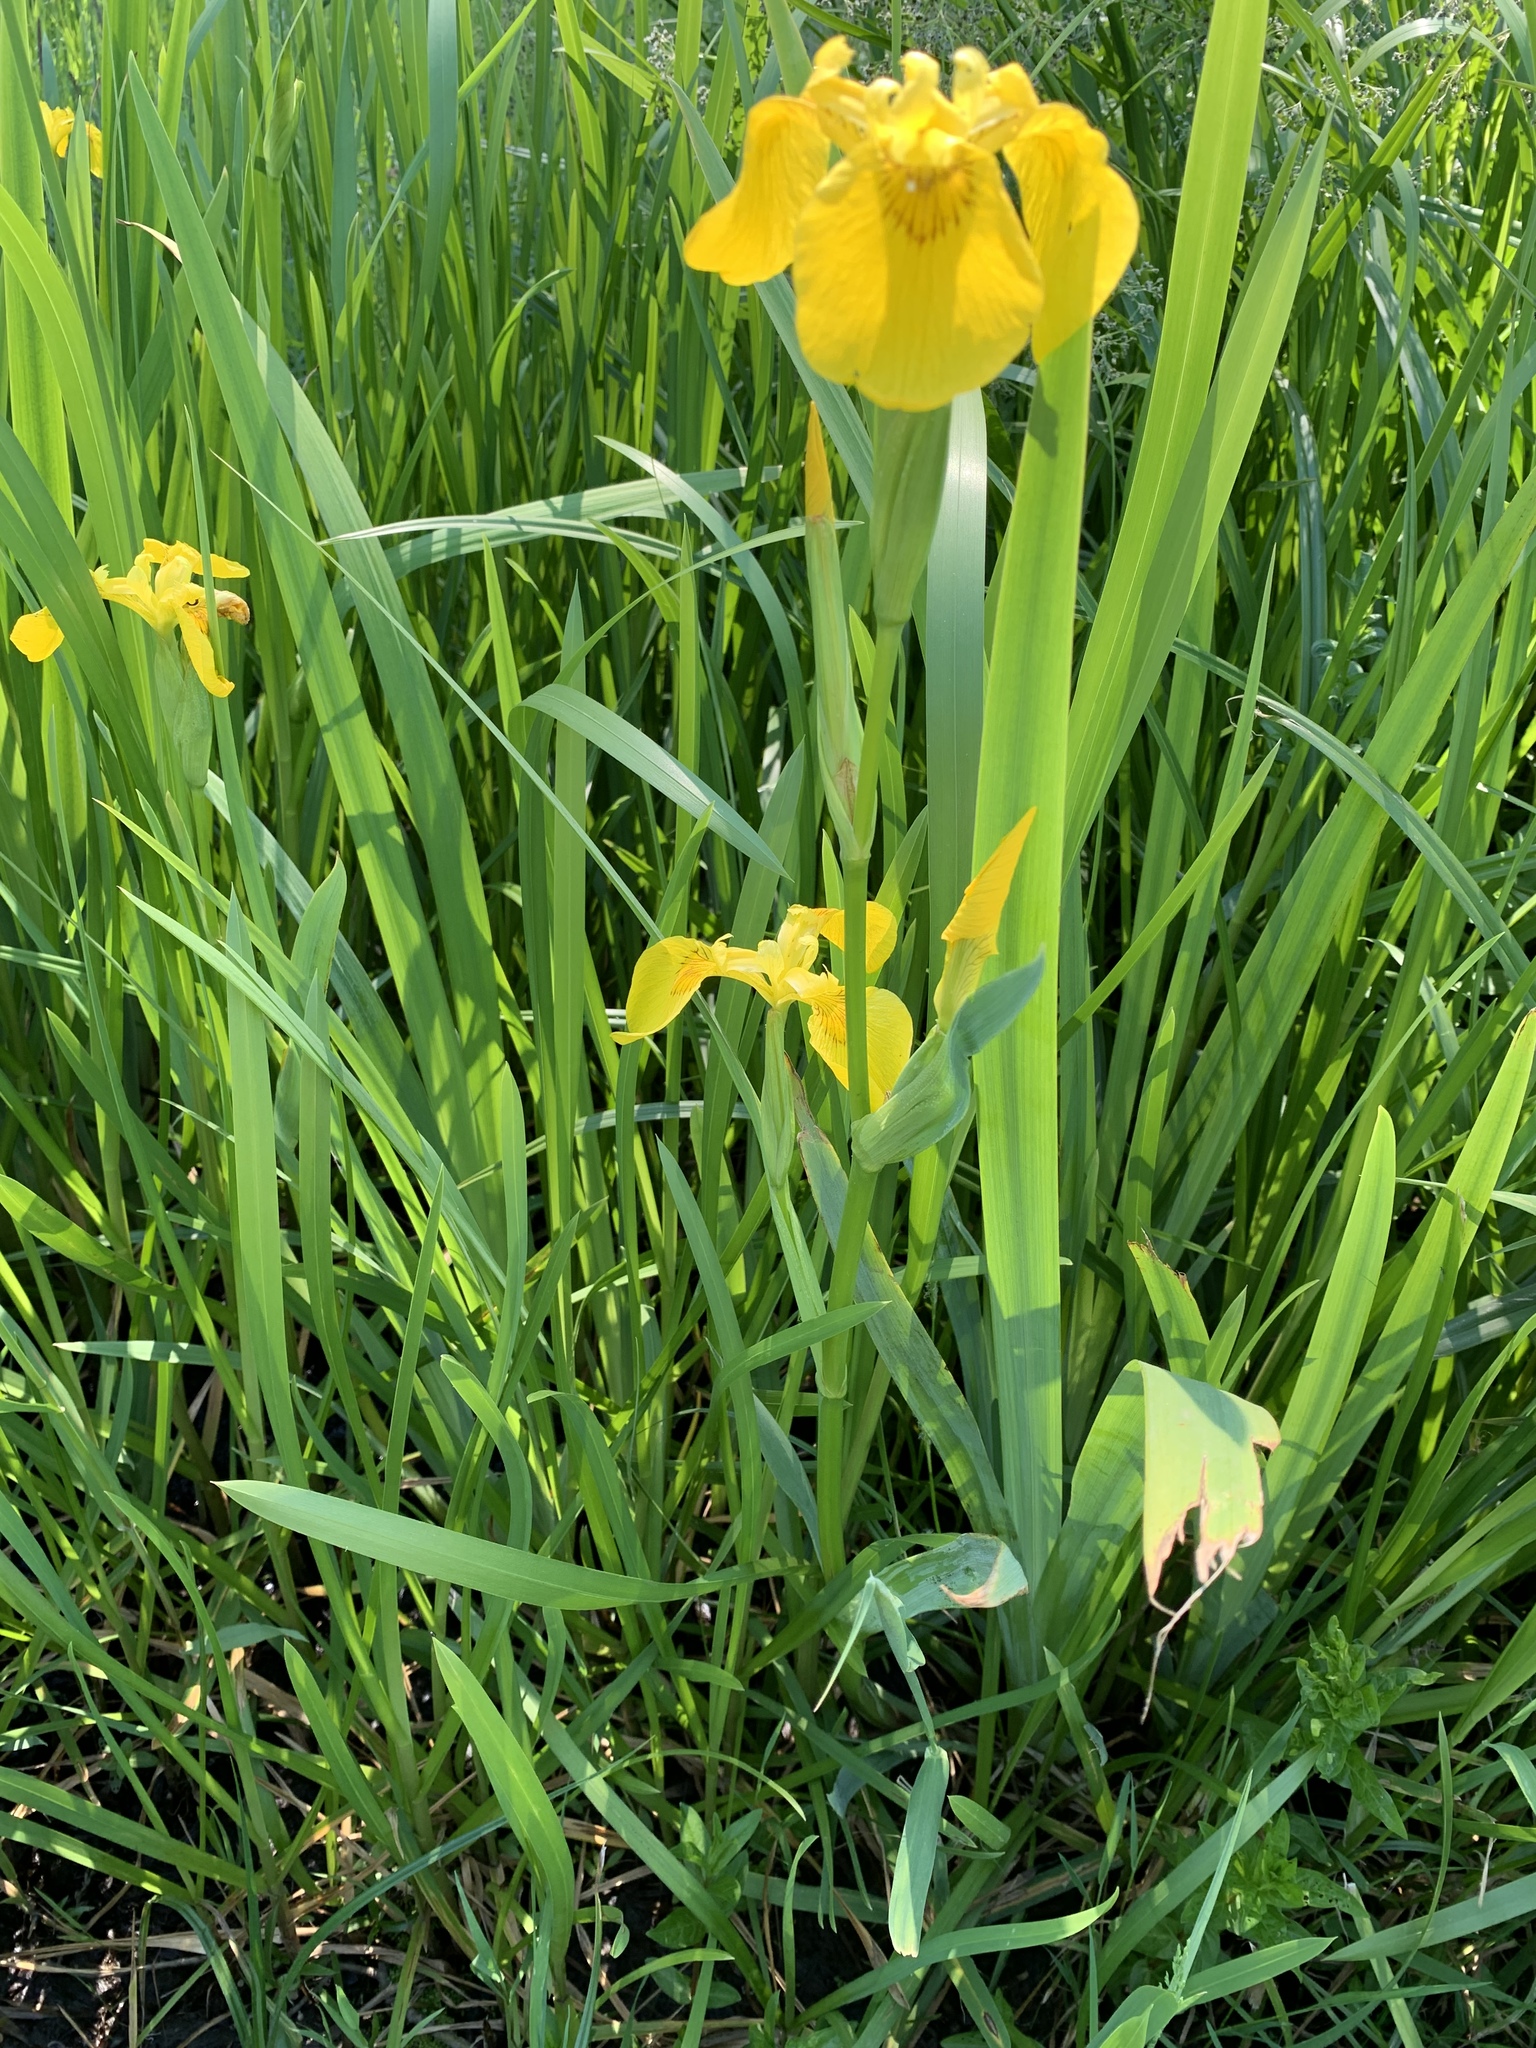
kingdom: Plantae
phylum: Tracheophyta
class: Liliopsida
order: Asparagales
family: Iridaceae
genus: Iris
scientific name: Iris pseudacorus
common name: Yellow flag
